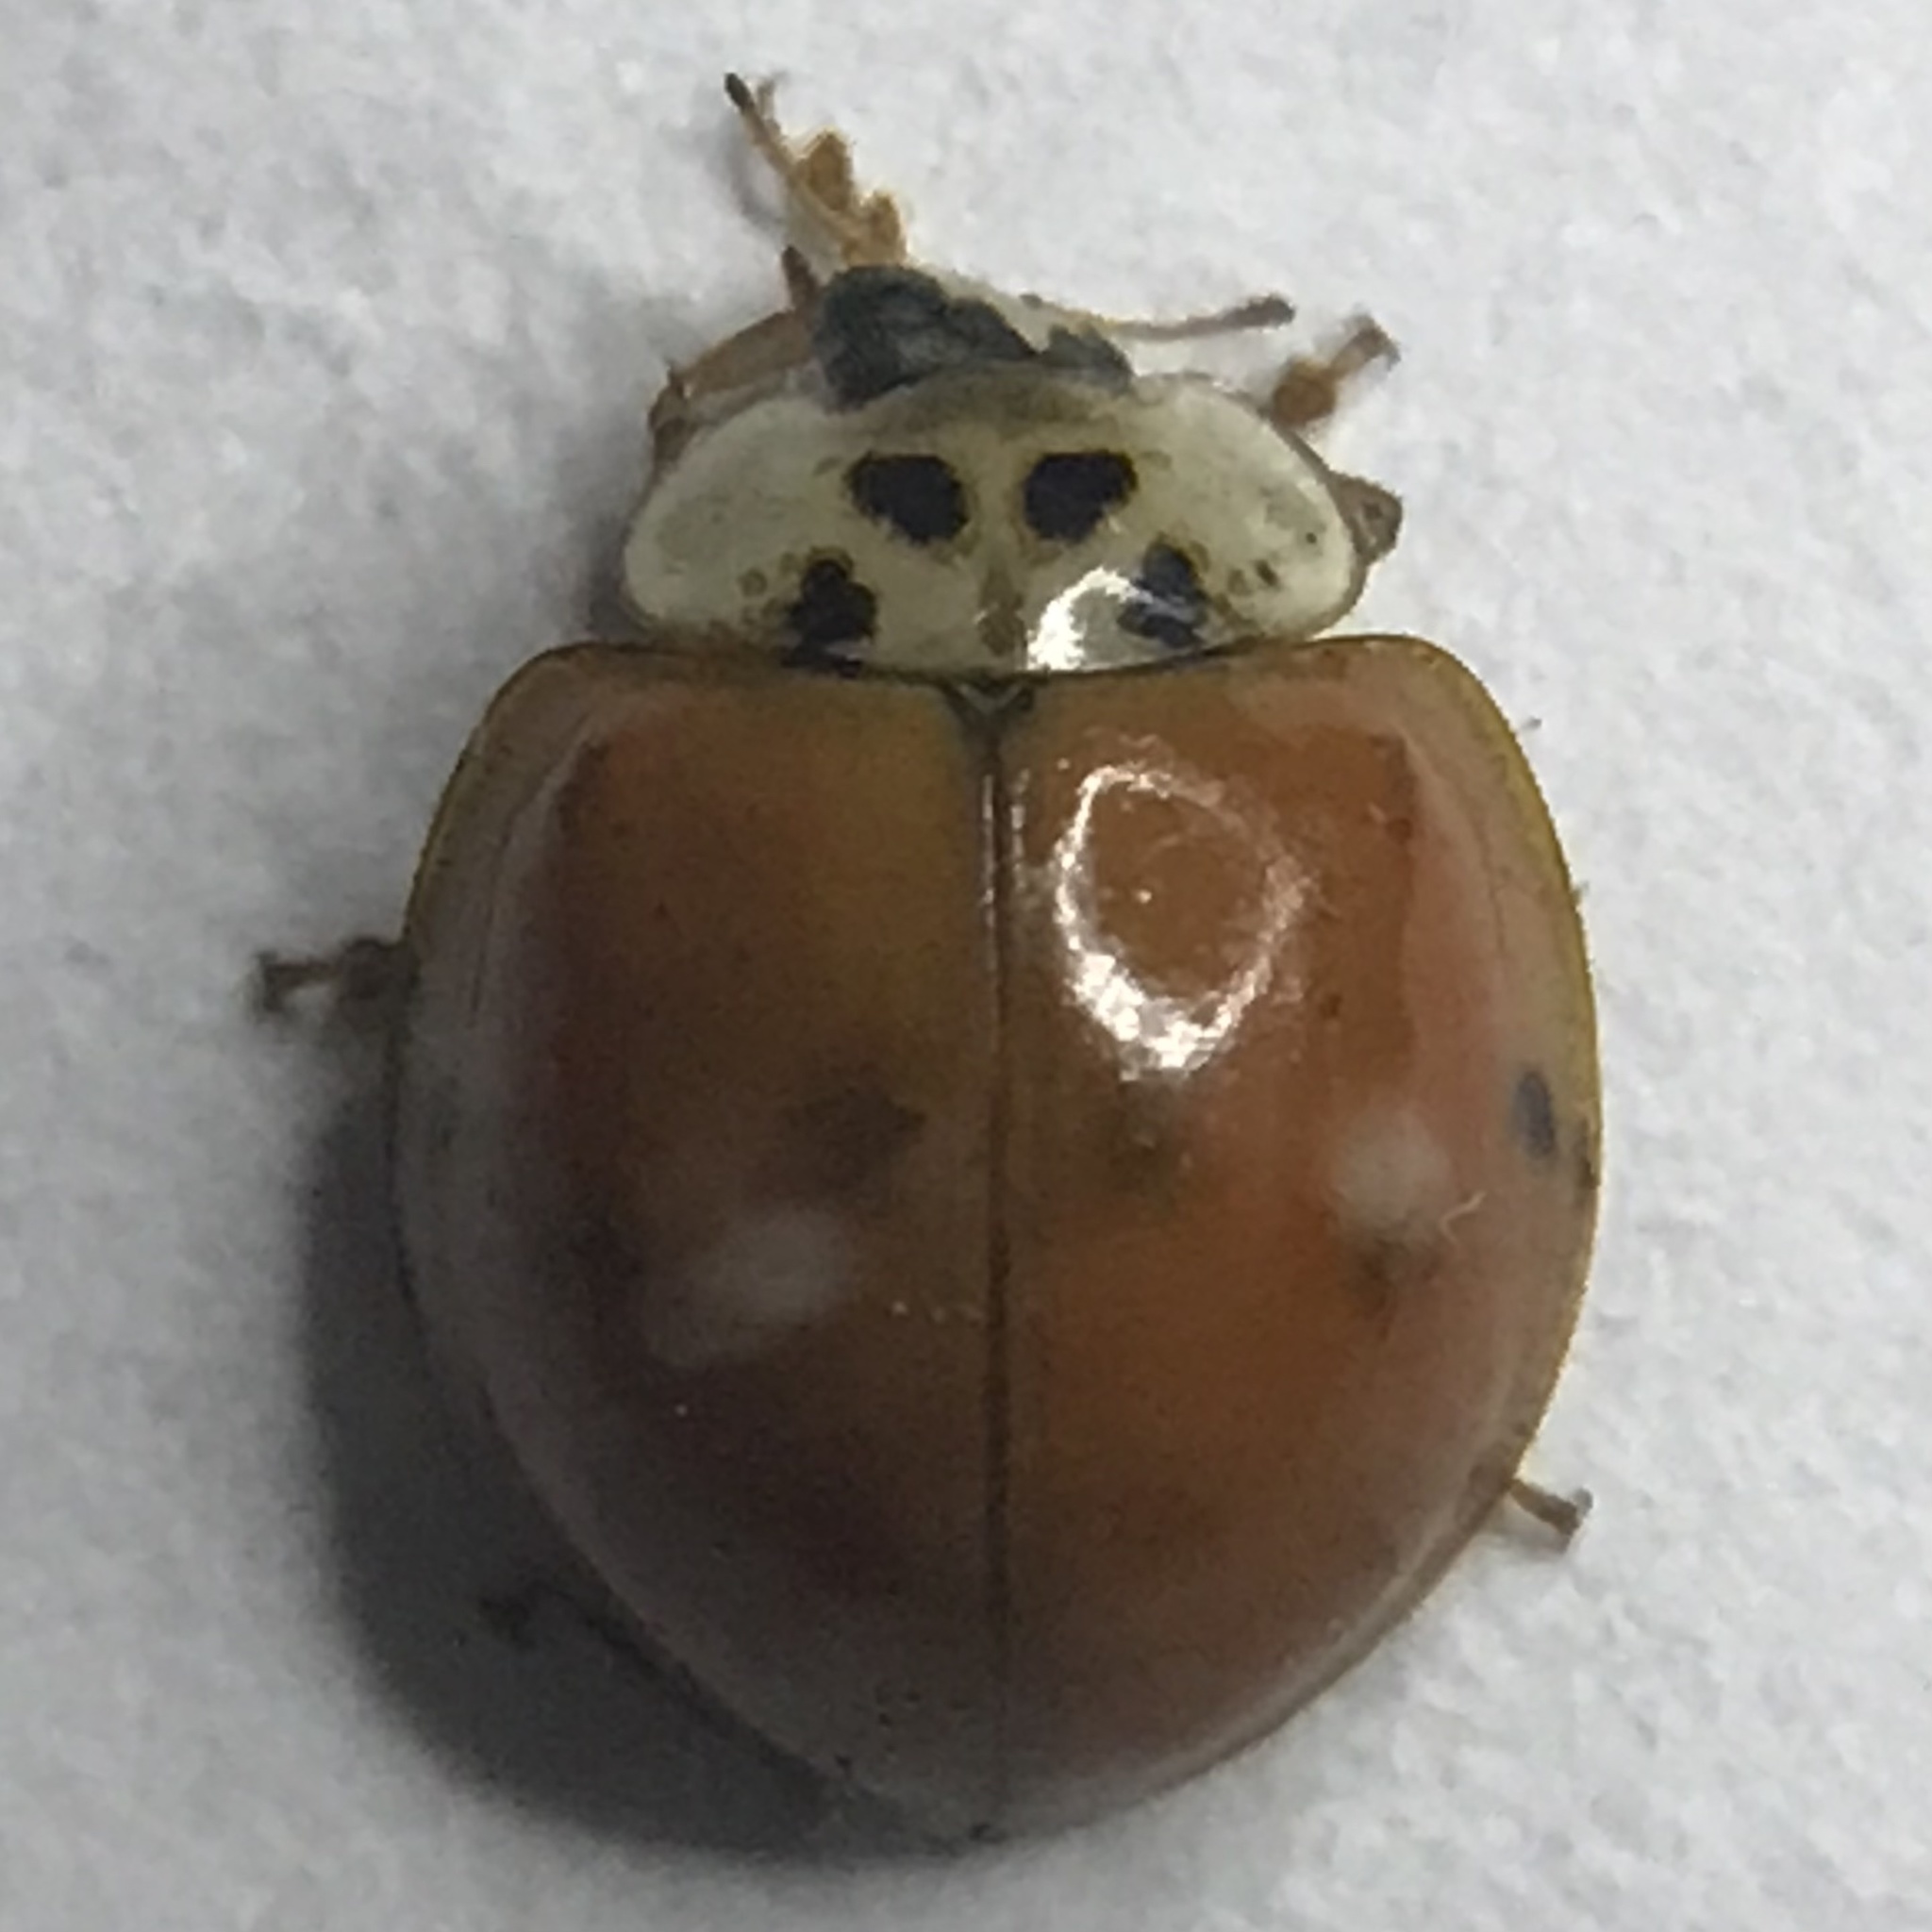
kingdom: Animalia
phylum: Arthropoda
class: Insecta
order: Coleoptera
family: Coccinellidae
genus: Harmonia
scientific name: Harmonia axyridis
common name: Harlequin ladybird
